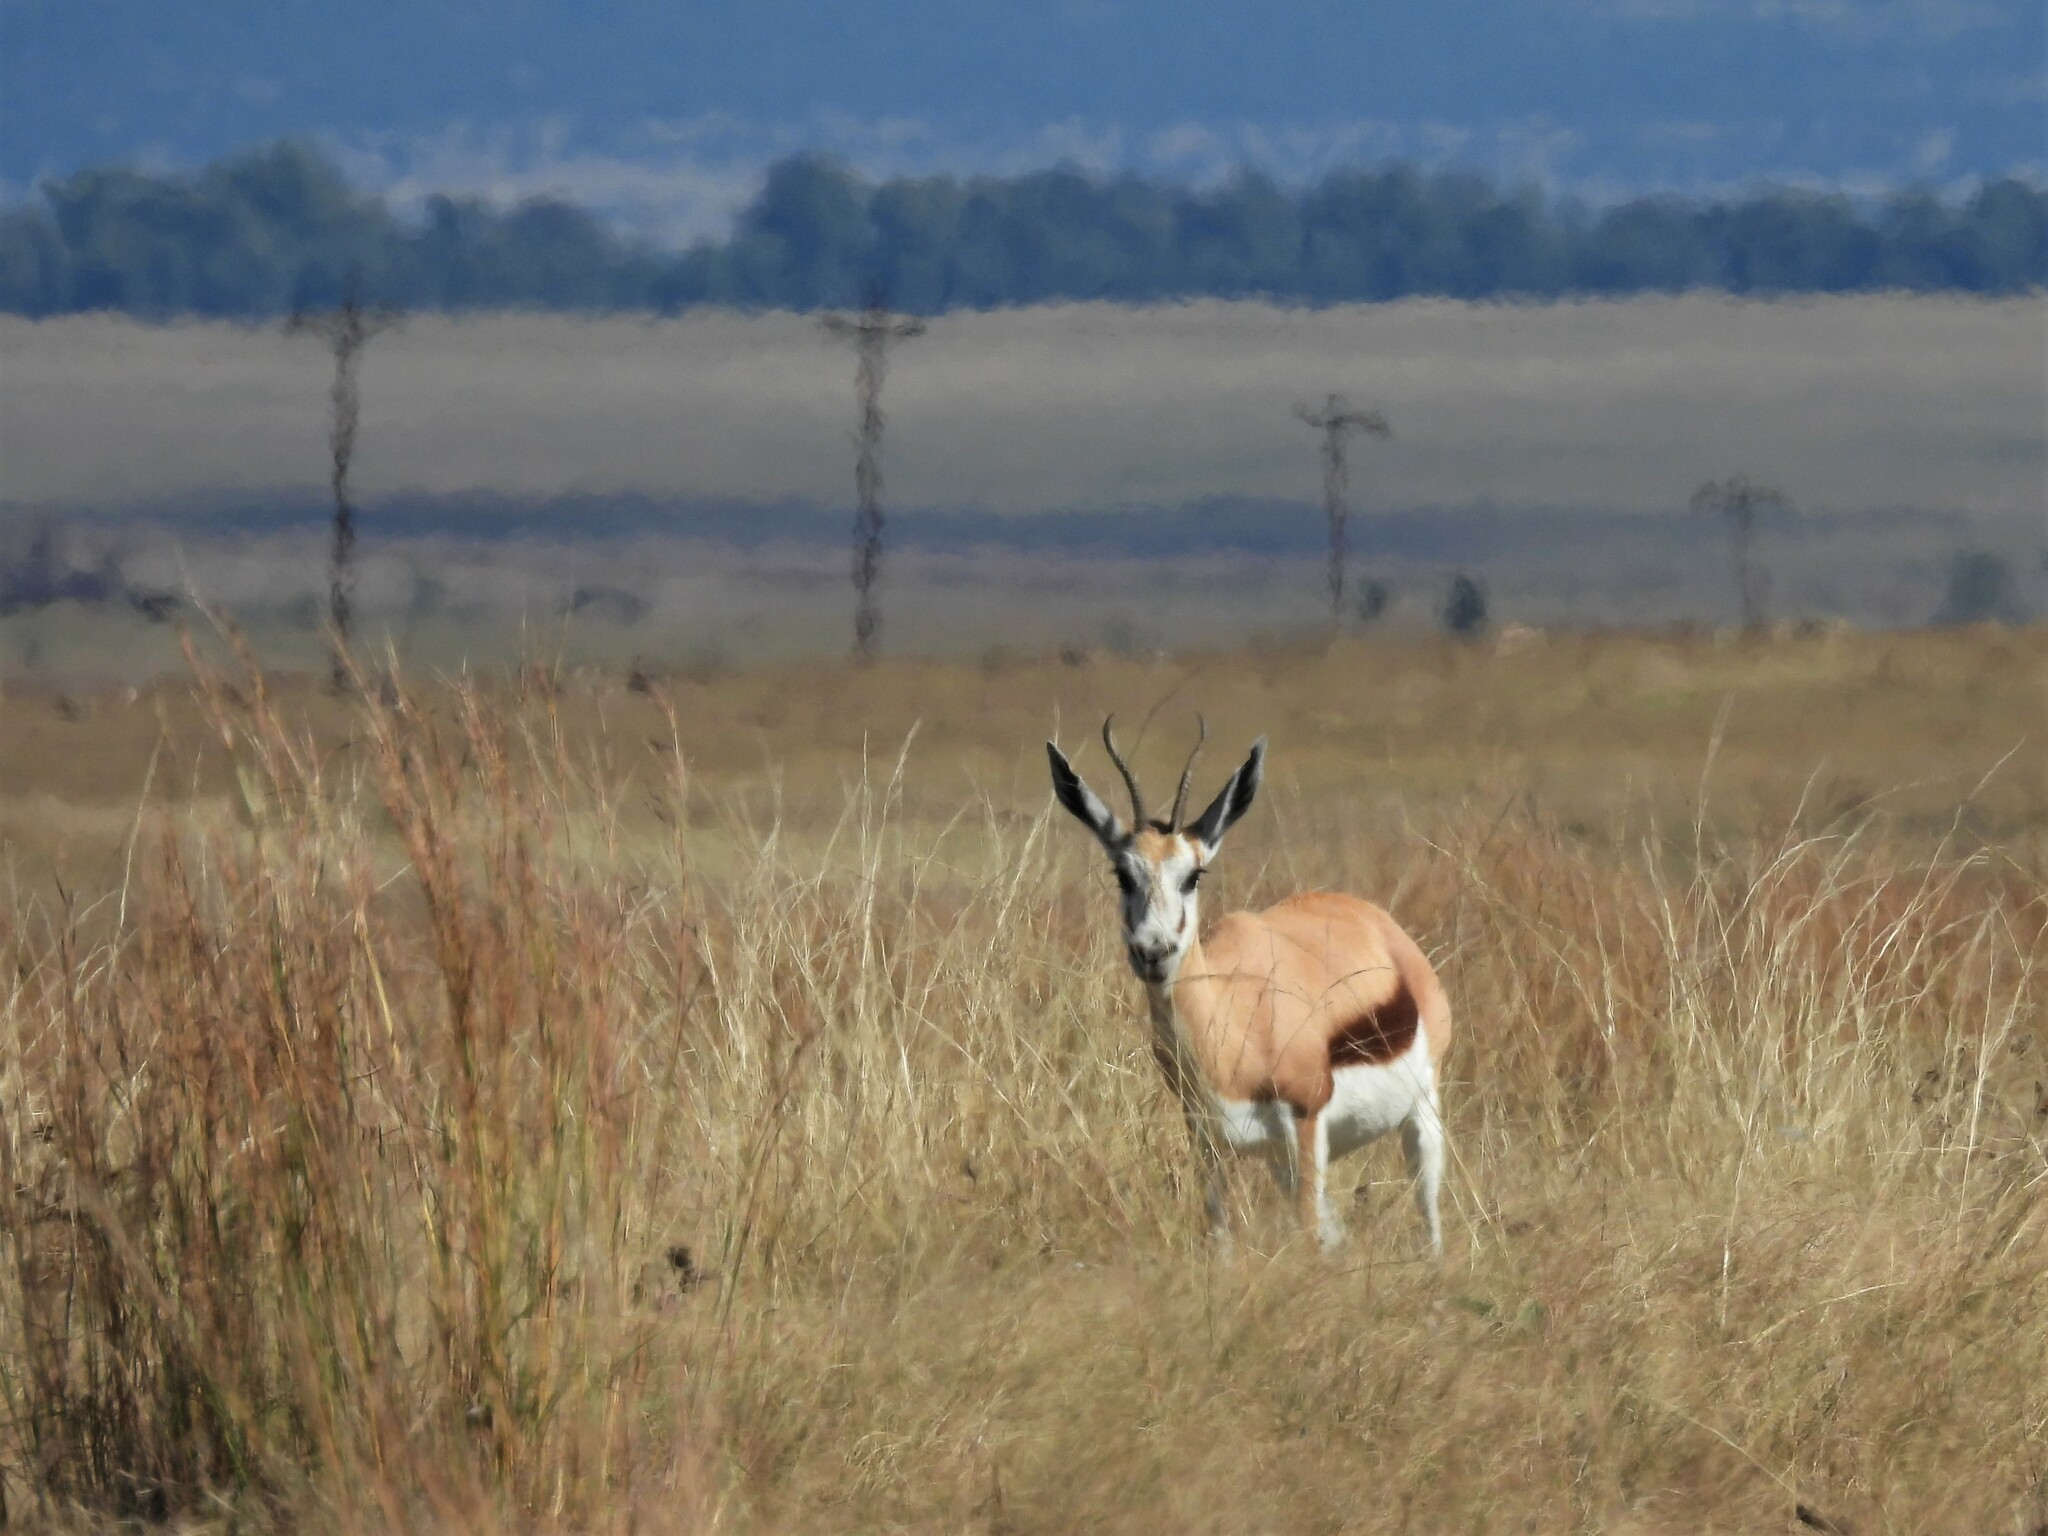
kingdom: Animalia
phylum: Chordata
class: Mammalia
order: Artiodactyla
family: Bovidae
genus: Antidorcas
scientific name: Antidorcas marsupialis
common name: Springbok
